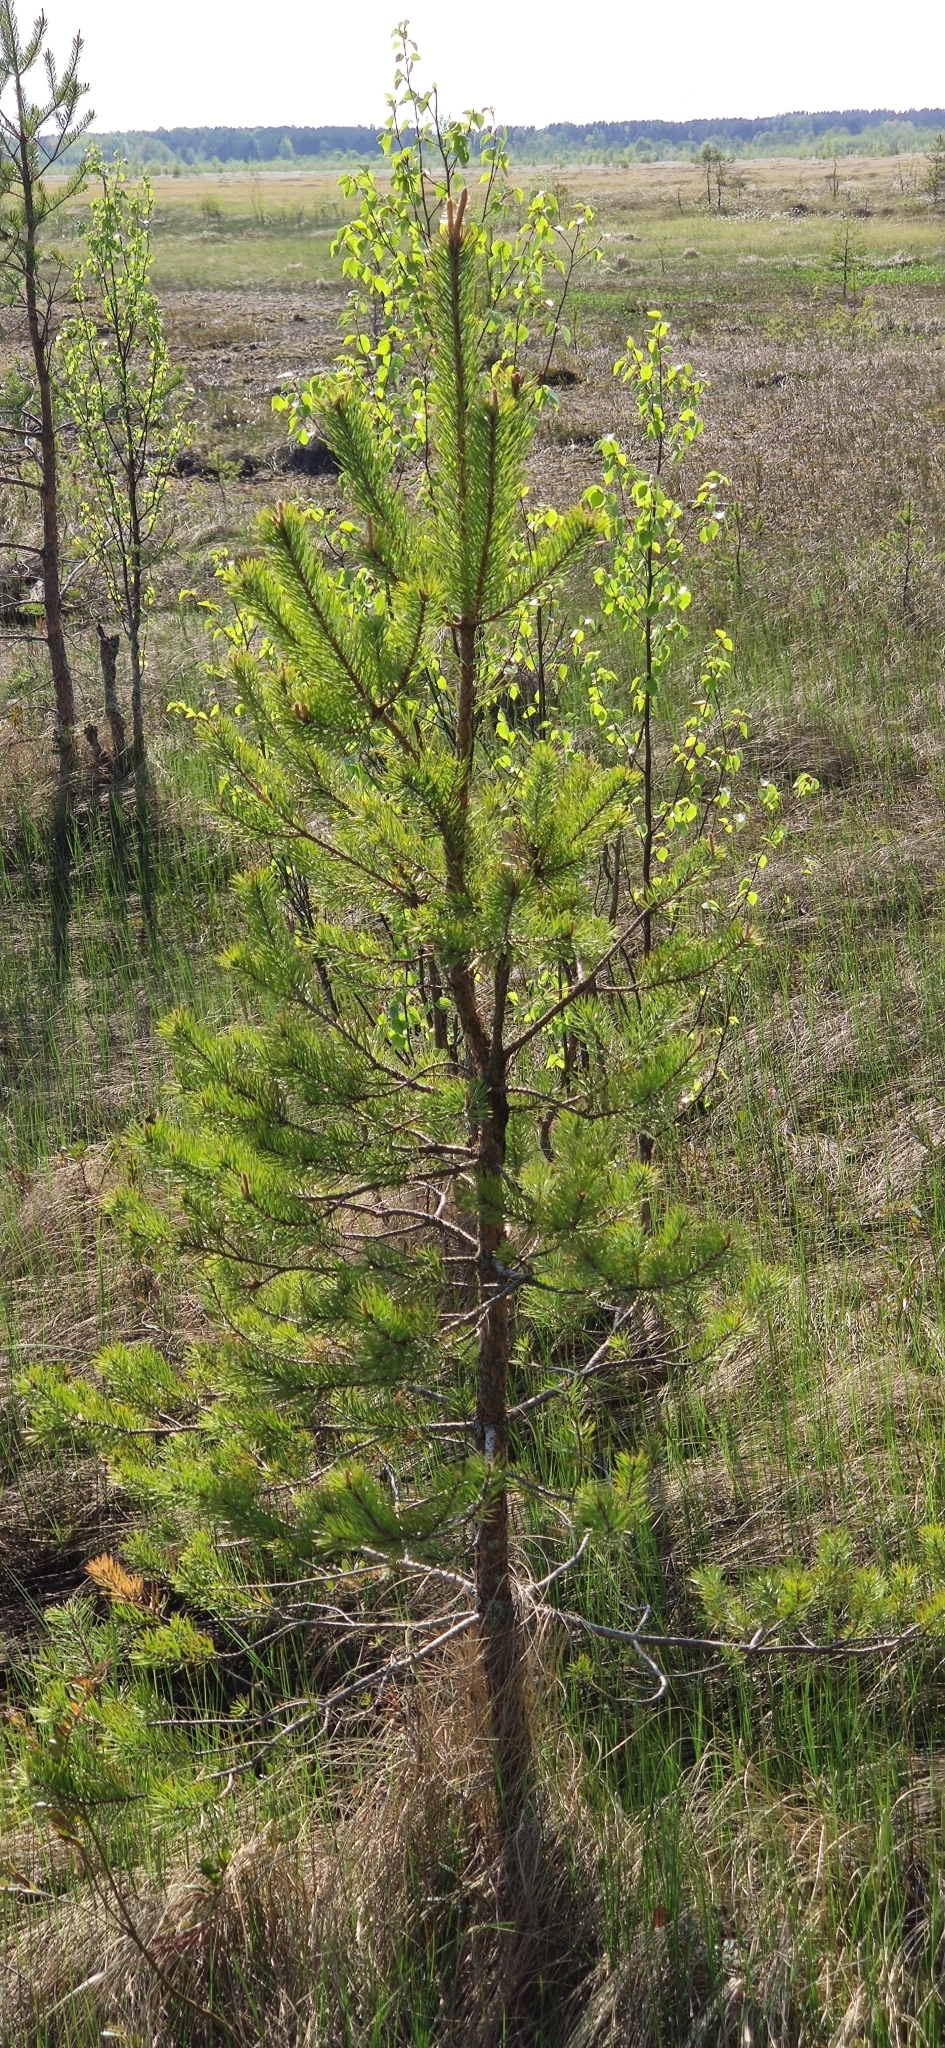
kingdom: Plantae
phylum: Tracheophyta
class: Pinopsida
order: Pinales
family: Pinaceae
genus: Pinus
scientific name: Pinus sylvestris
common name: Scots pine
